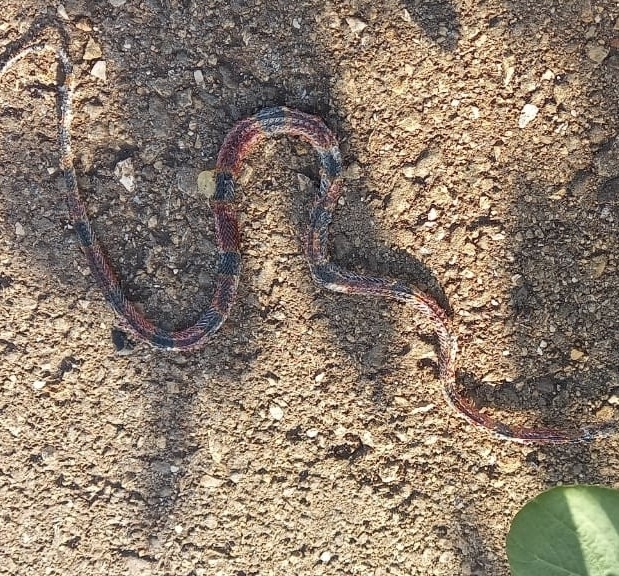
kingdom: Animalia
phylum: Chordata
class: Squamata
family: Elapidae
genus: Micrurus
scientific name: Micrurus diastema
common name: Diastema coral snake
